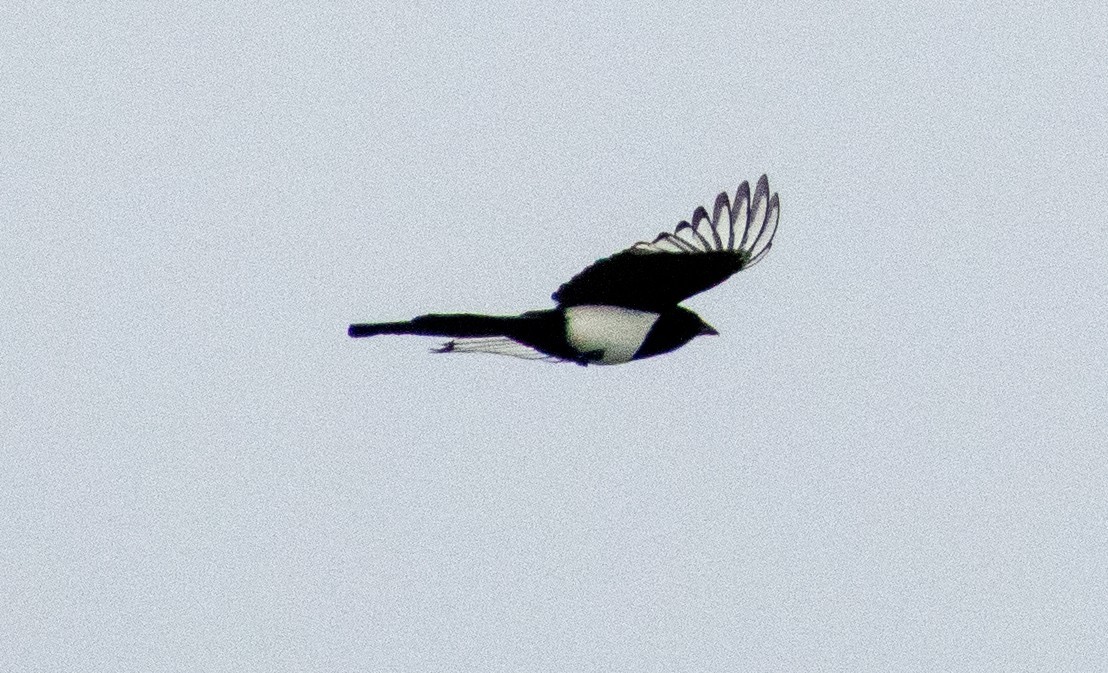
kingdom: Animalia
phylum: Chordata
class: Aves
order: Passeriformes
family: Corvidae
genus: Pica
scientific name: Pica pica
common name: Eurasian magpie
